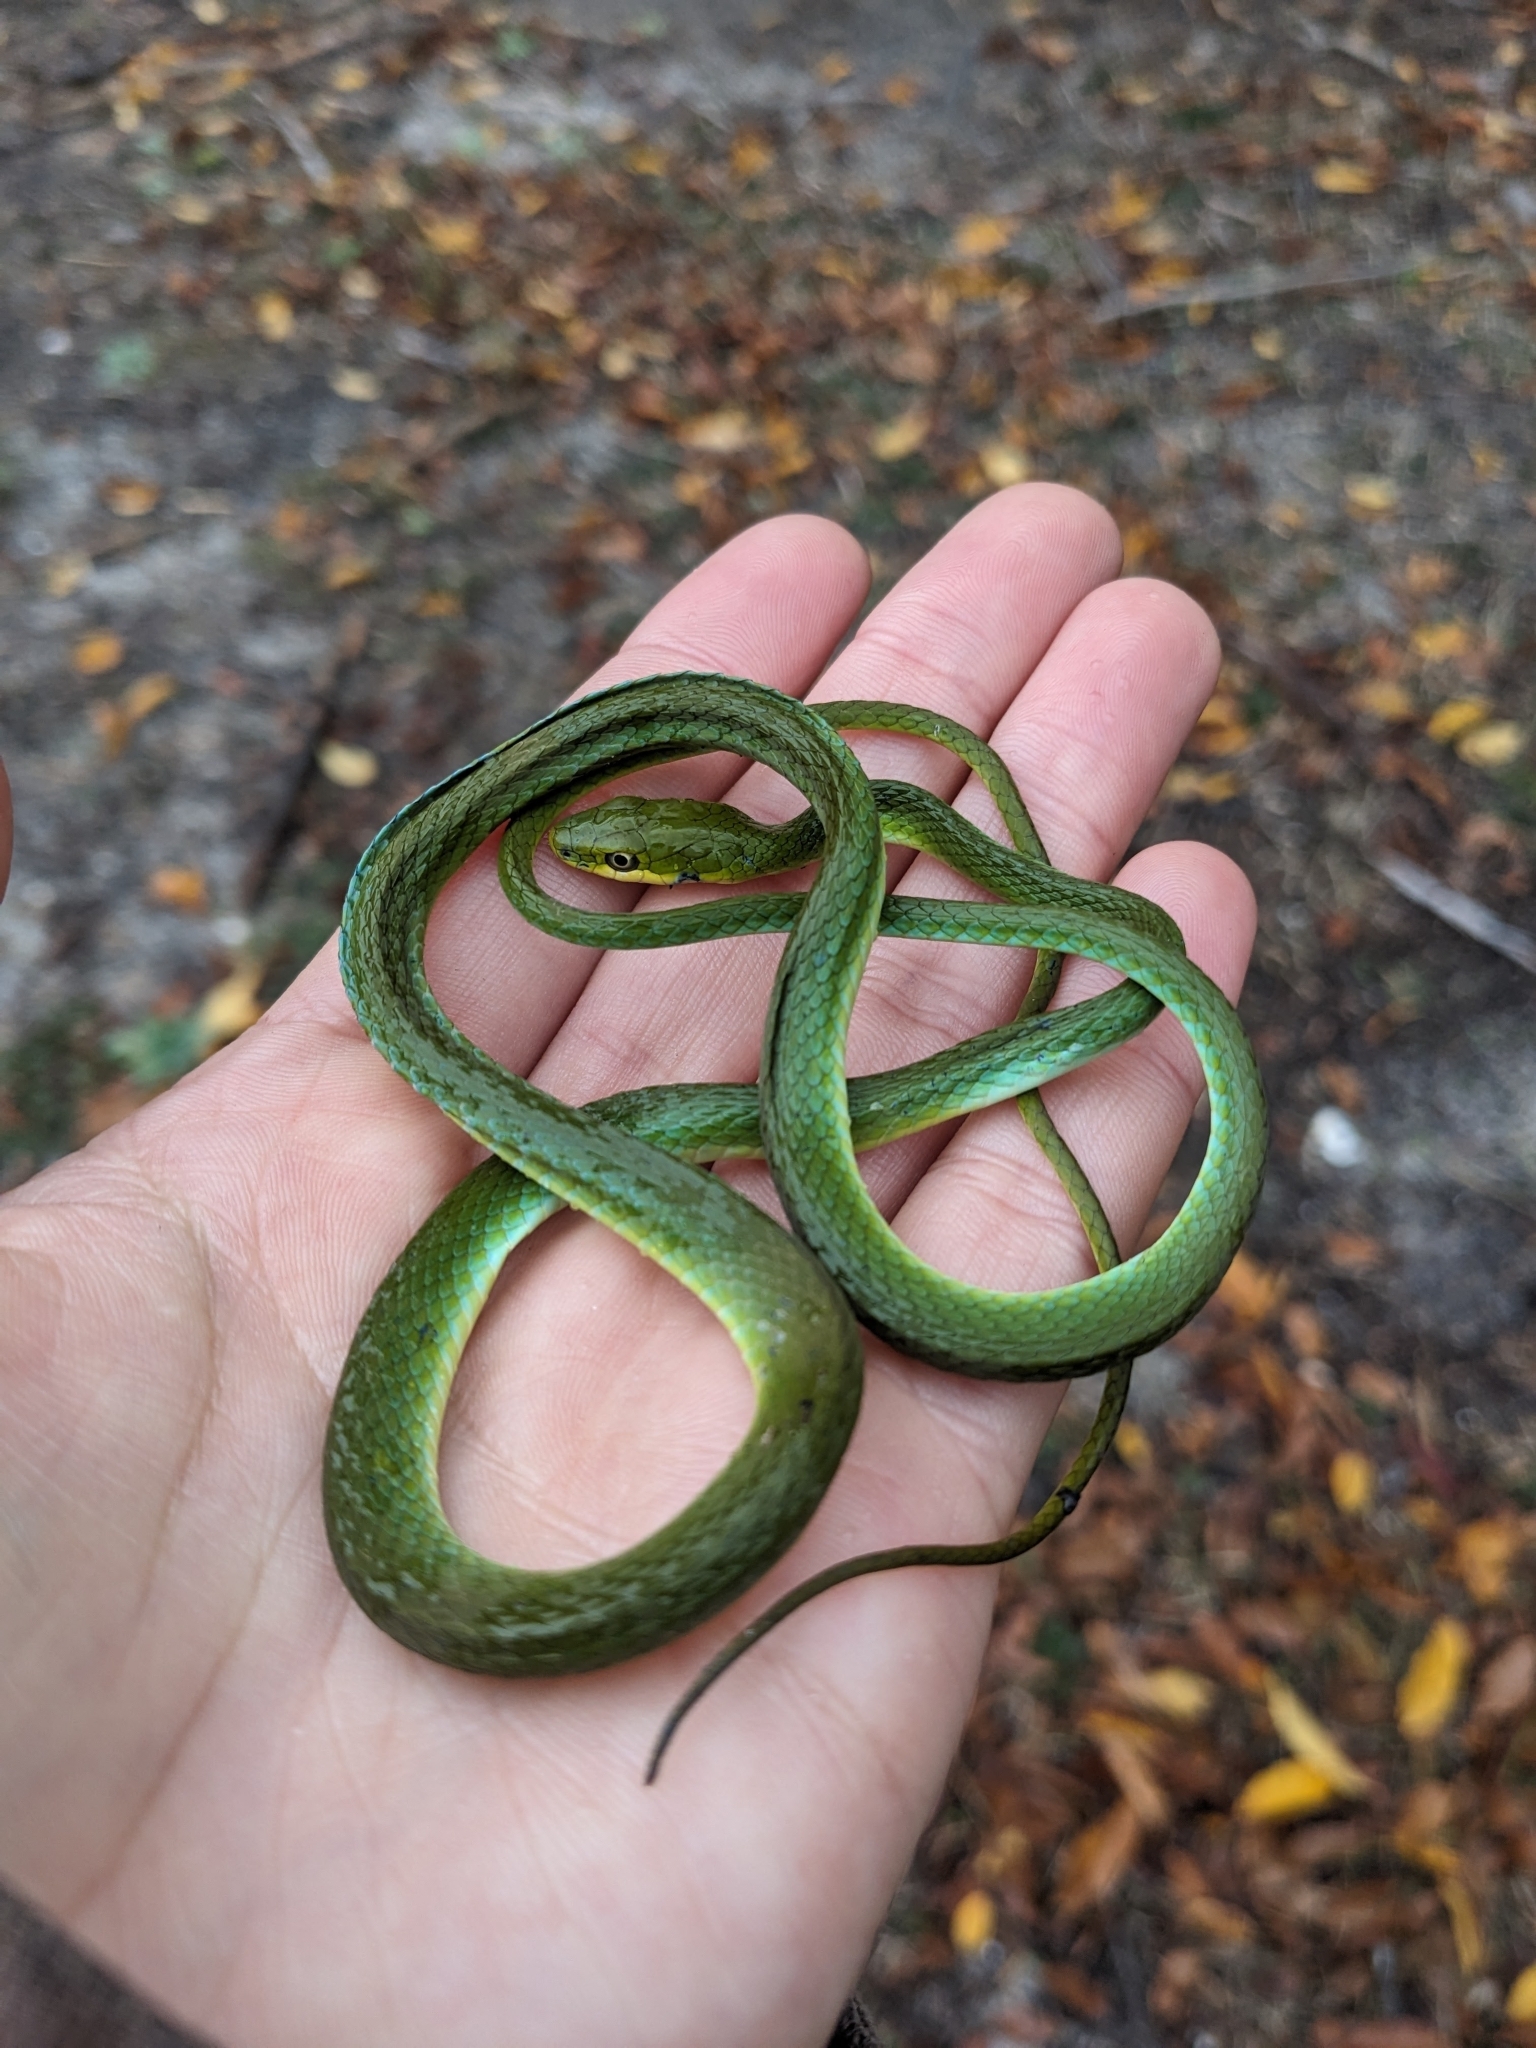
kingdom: Animalia
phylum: Chordata
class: Squamata
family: Colubridae
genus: Opheodrys
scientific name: Opheodrys aestivus
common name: Rough greensnake
